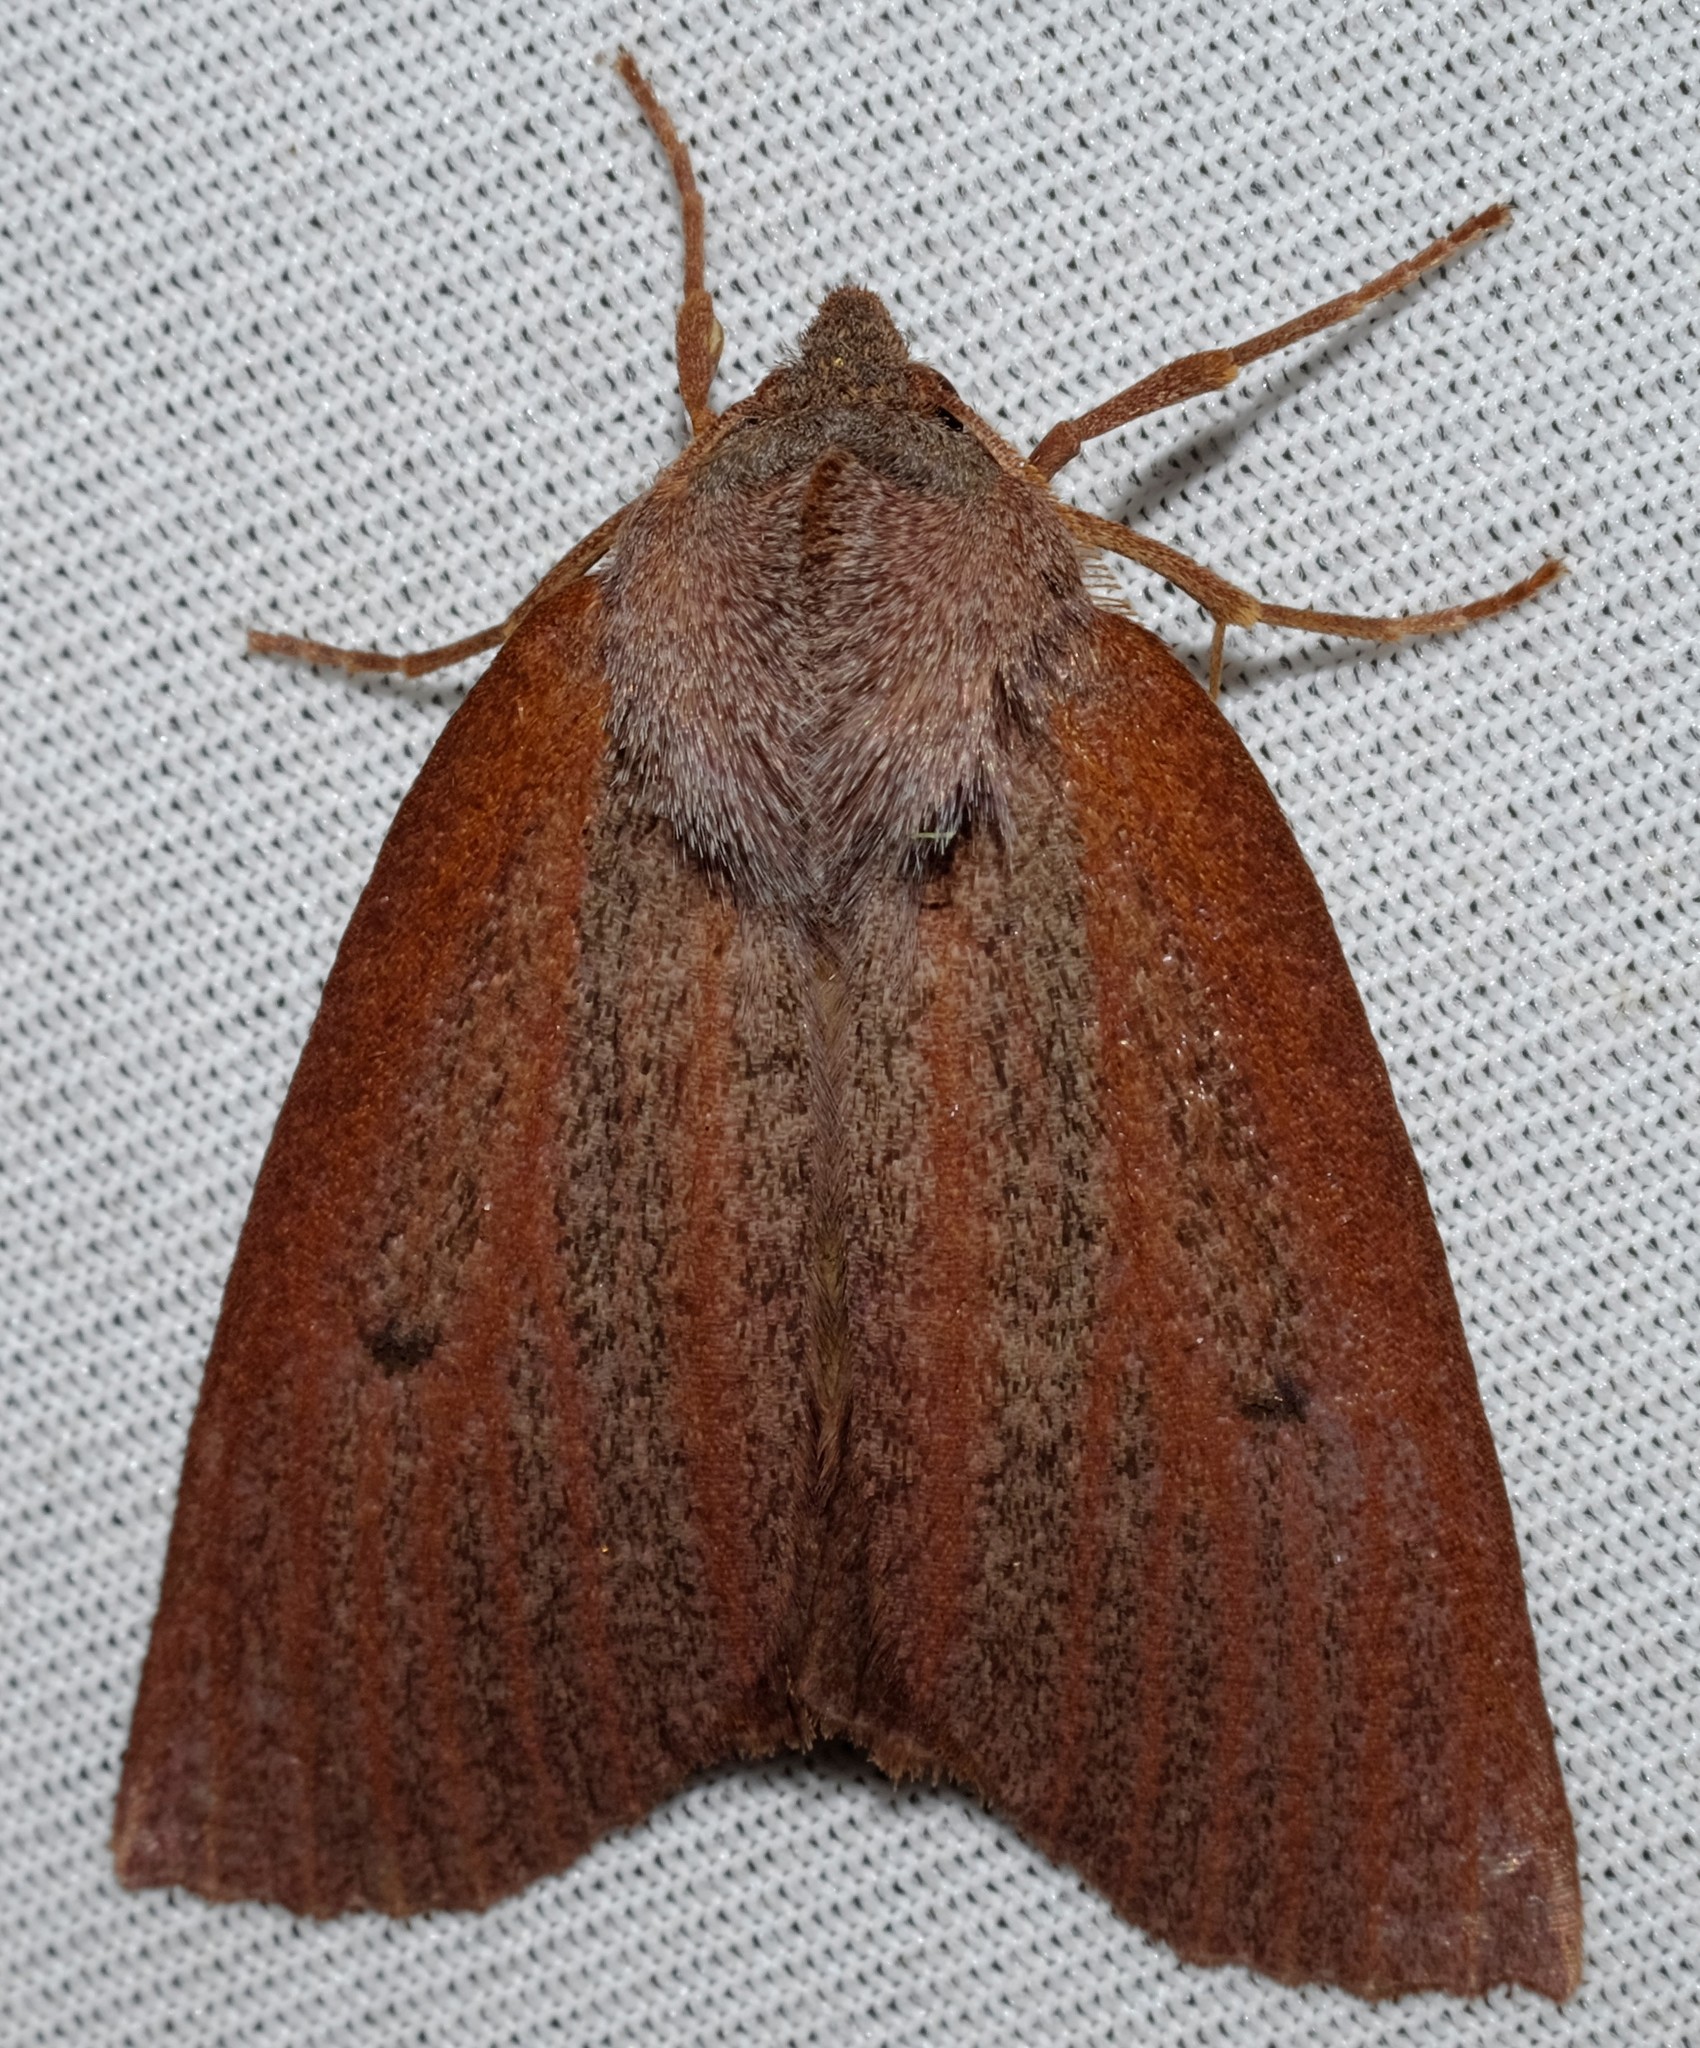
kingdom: Animalia
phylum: Arthropoda
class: Insecta
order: Lepidoptera
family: Geometridae
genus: Paralaea
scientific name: Paralaea porphyrinaria
